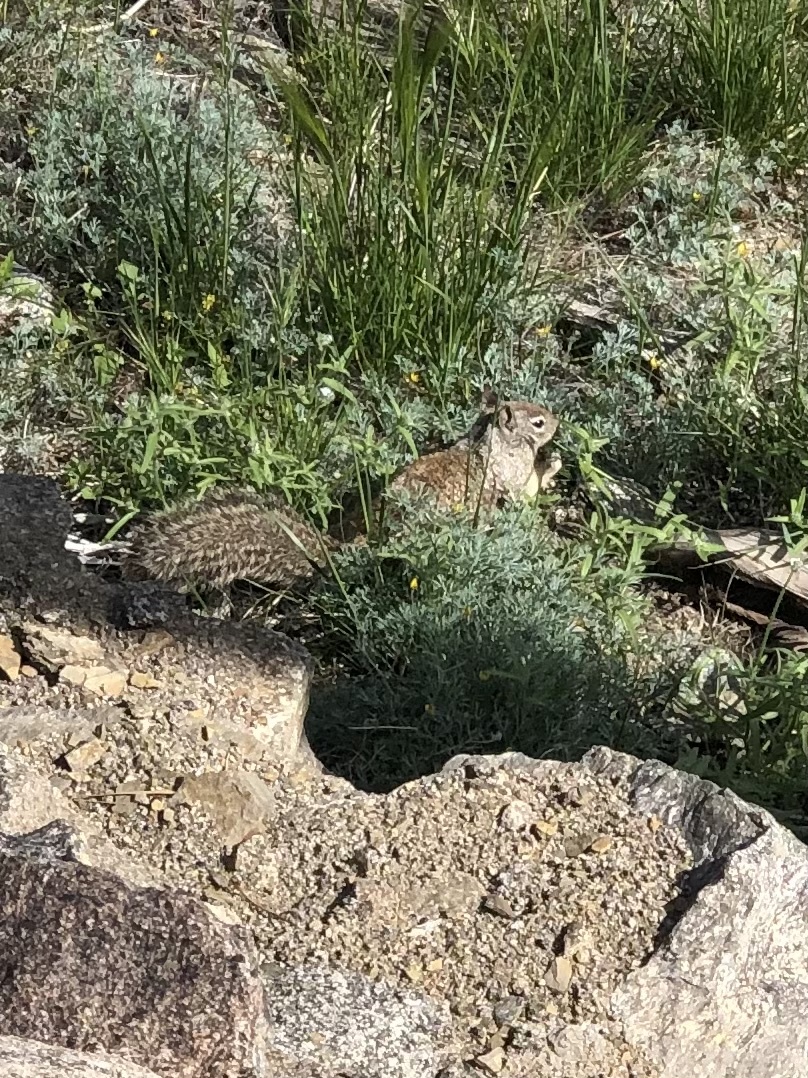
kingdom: Animalia
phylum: Chordata
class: Mammalia
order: Rodentia
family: Sciuridae
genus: Otospermophilus
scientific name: Otospermophilus beecheyi
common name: California ground squirrel
